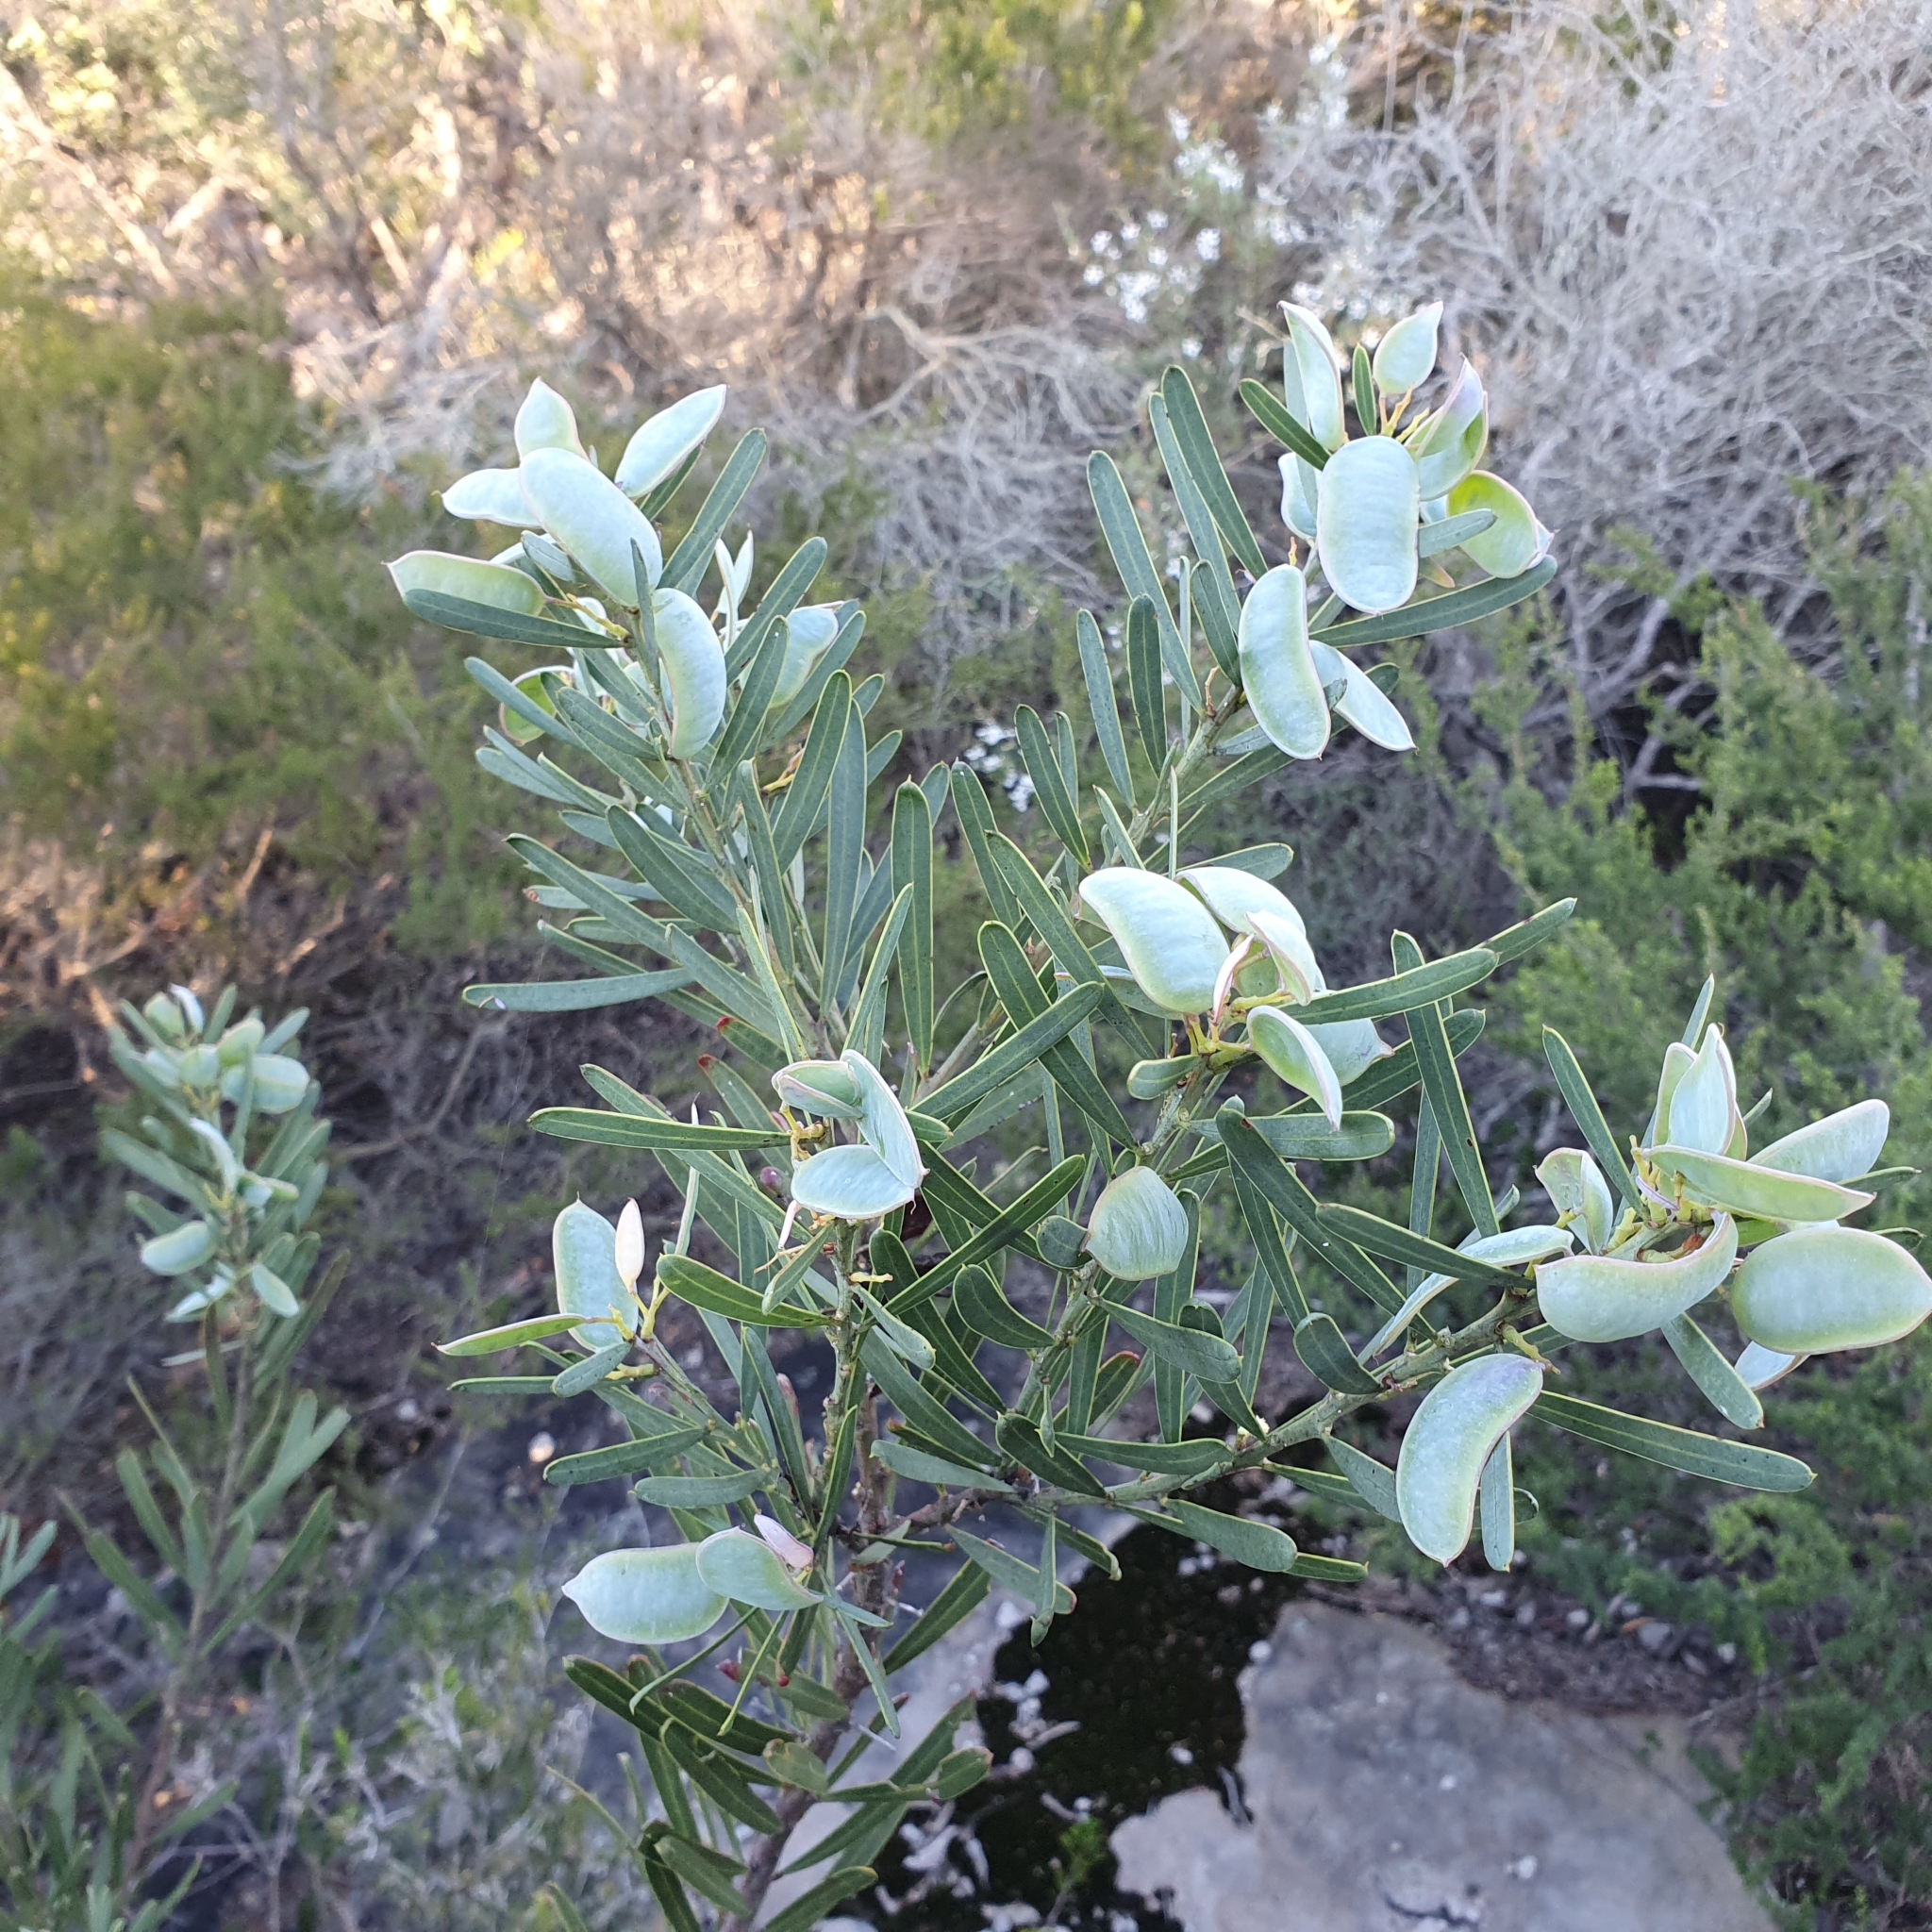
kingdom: Plantae
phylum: Tracheophyta
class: Magnoliopsida
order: Fabales
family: Fabaceae
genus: Acacia
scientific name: Acacia suaveolens
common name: Sweet acacia
